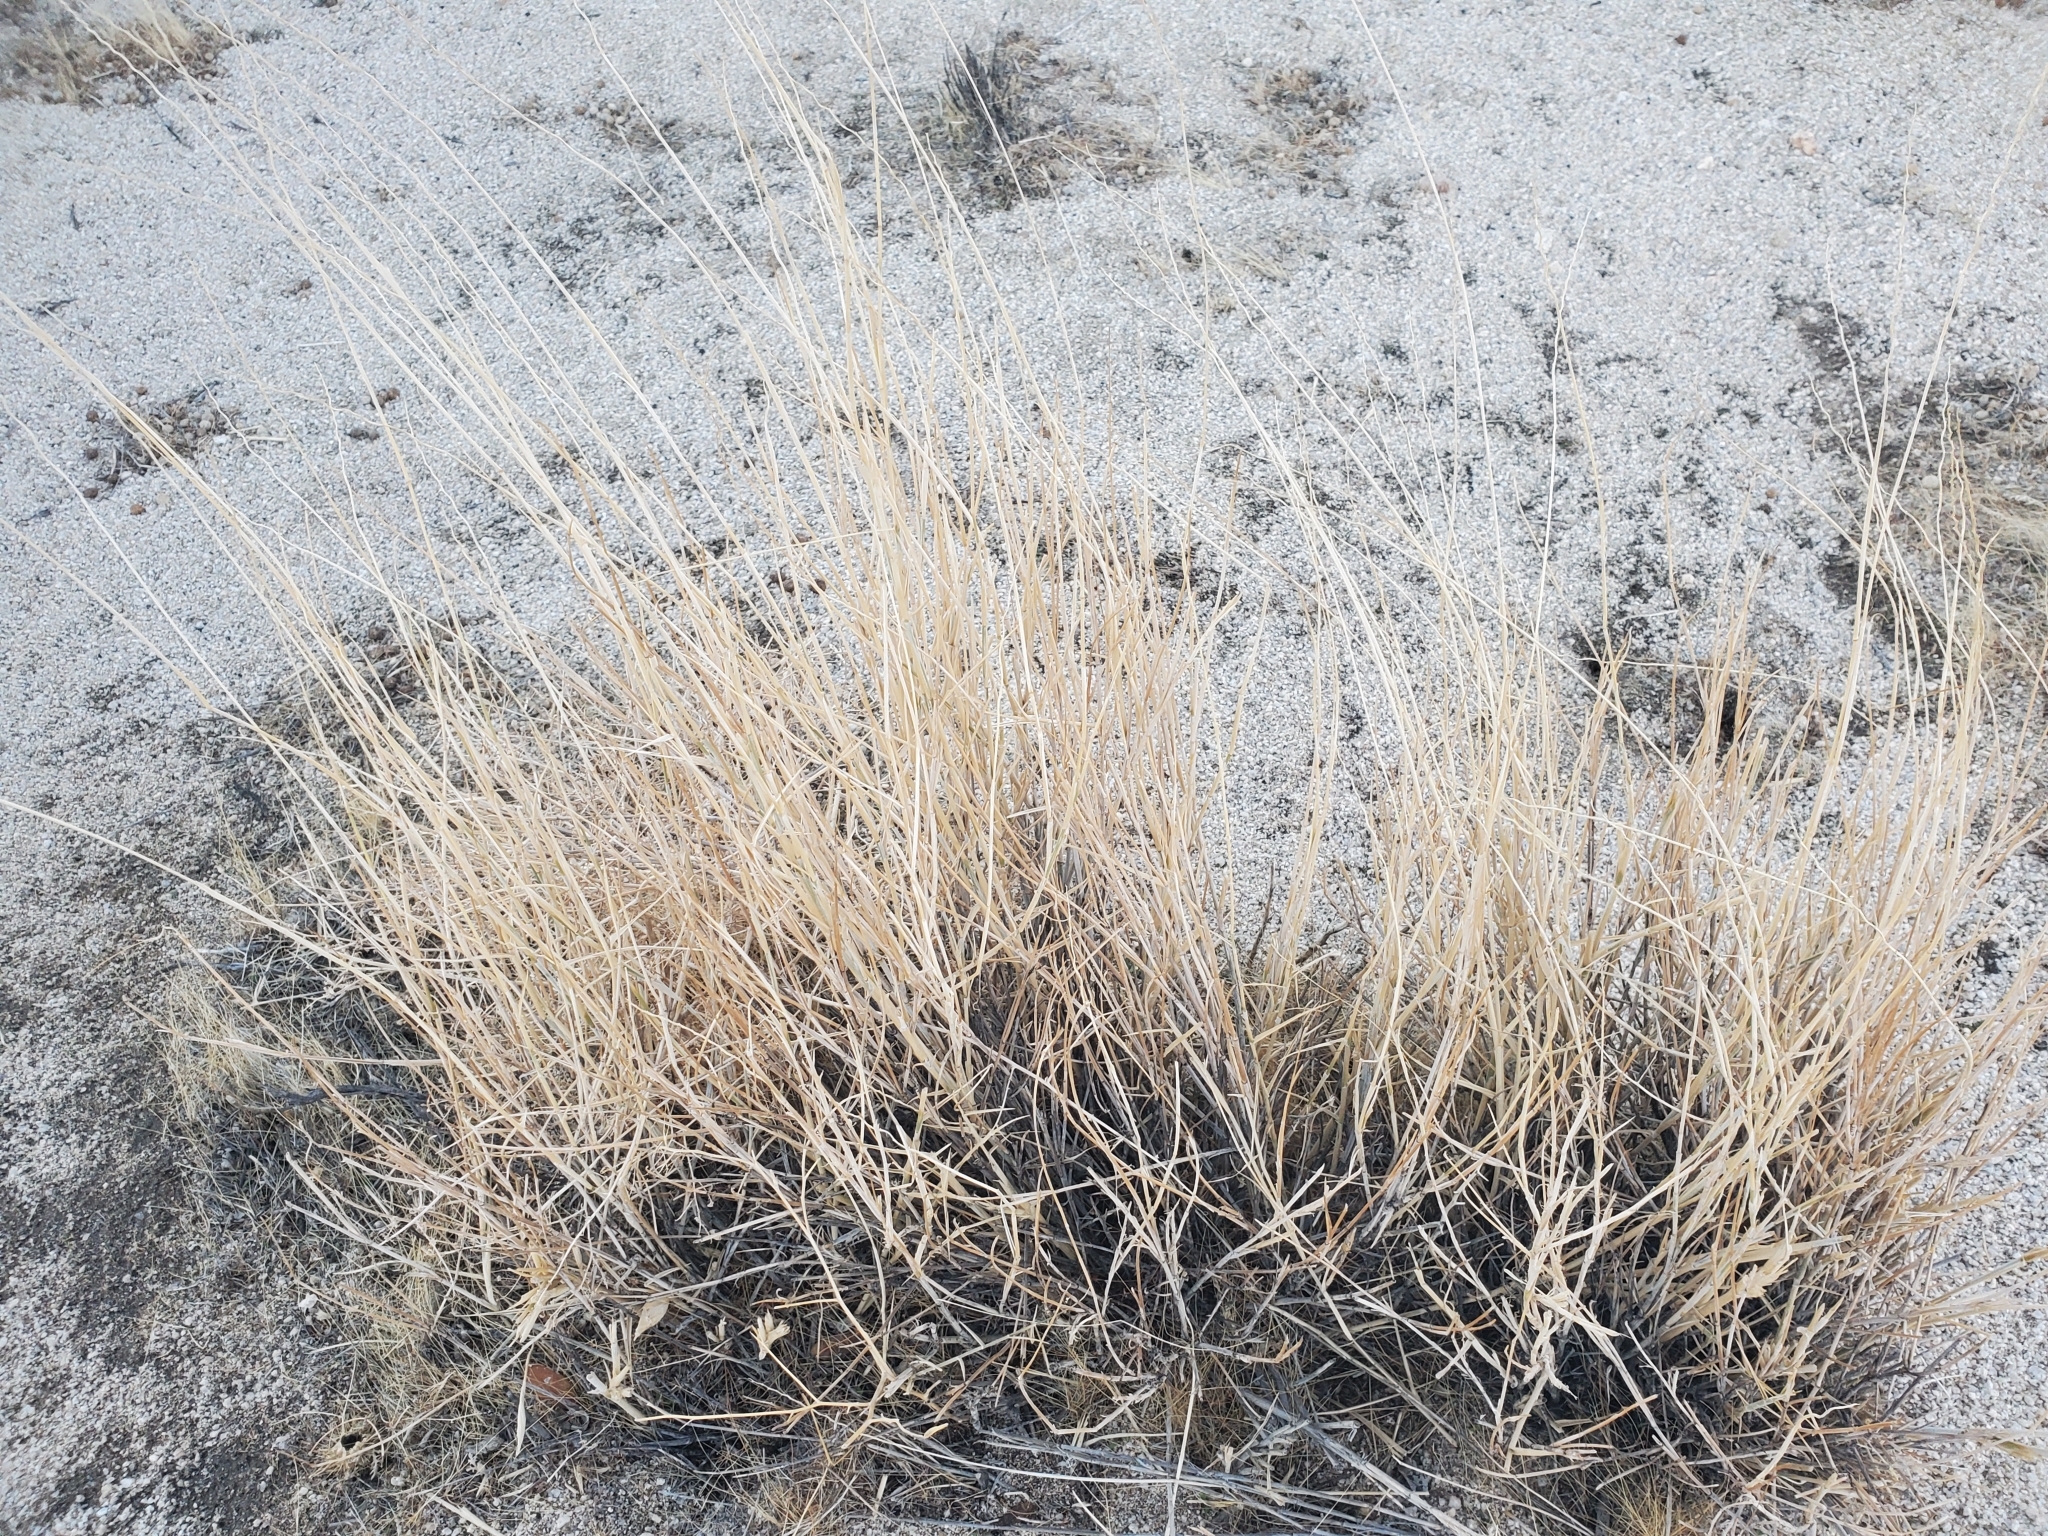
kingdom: Plantae
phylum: Tracheophyta
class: Liliopsida
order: Poales
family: Poaceae
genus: Hilaria
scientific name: Hilaria rigida
